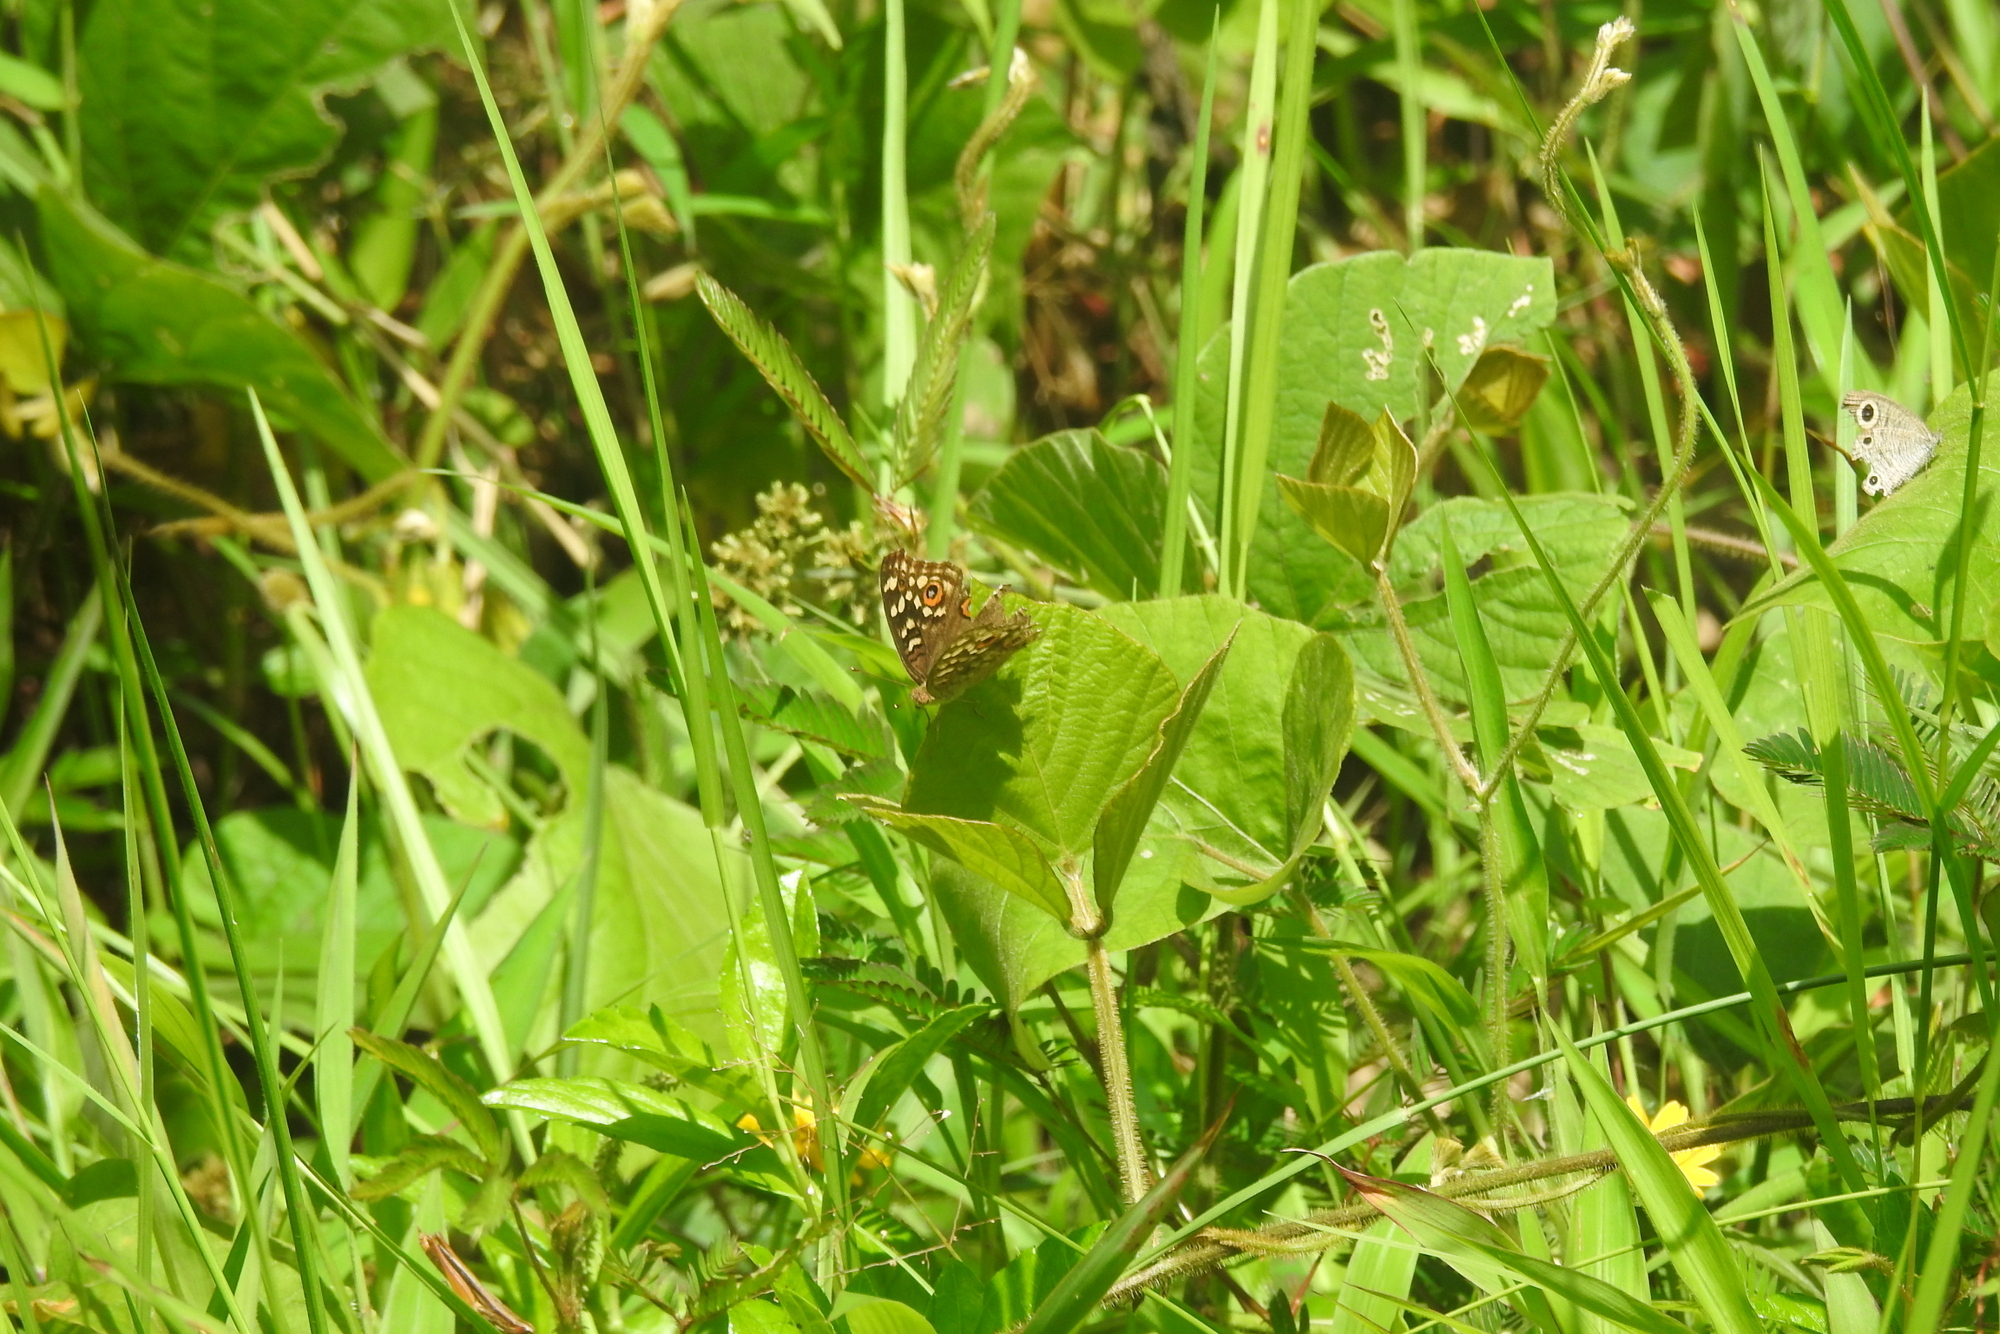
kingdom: Animalia
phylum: Arthropoda
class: Insecta
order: Lepidoptera
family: Nymphalidae
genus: Junonia
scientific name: Junonia lemonias
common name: Lemon pansy
